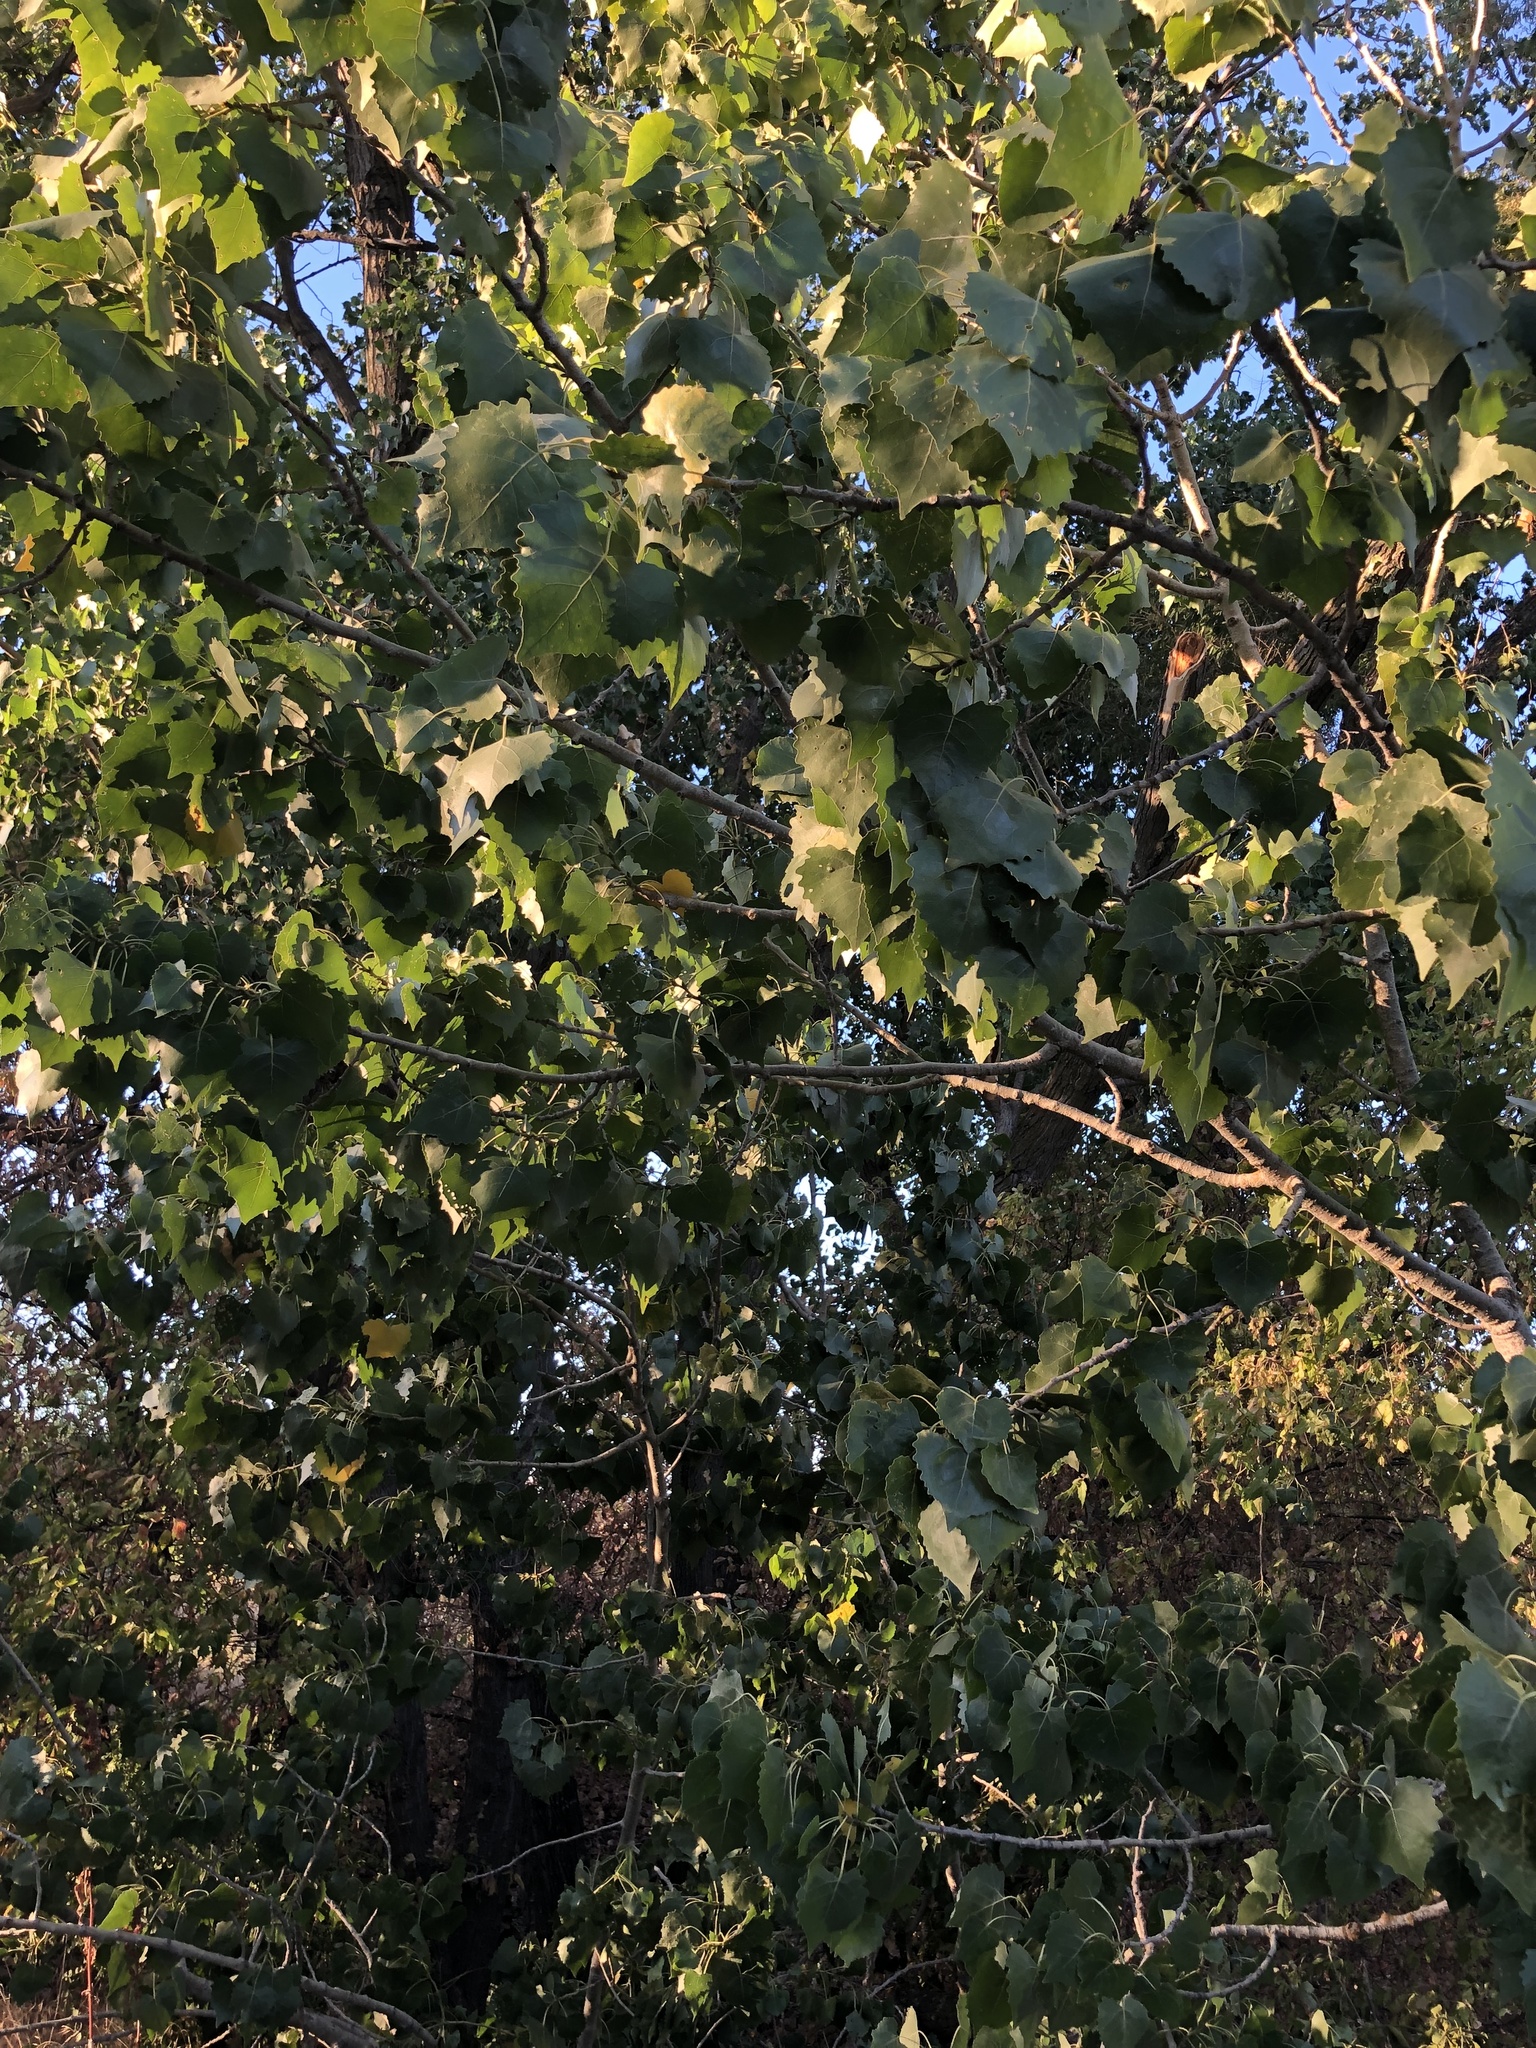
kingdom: Plantae
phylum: Tracheophyta
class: Magnoliopsida
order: Malpighiales
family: Salicaceae
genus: Populus
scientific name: Populus fremontii
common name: Fremont's cottonwood
